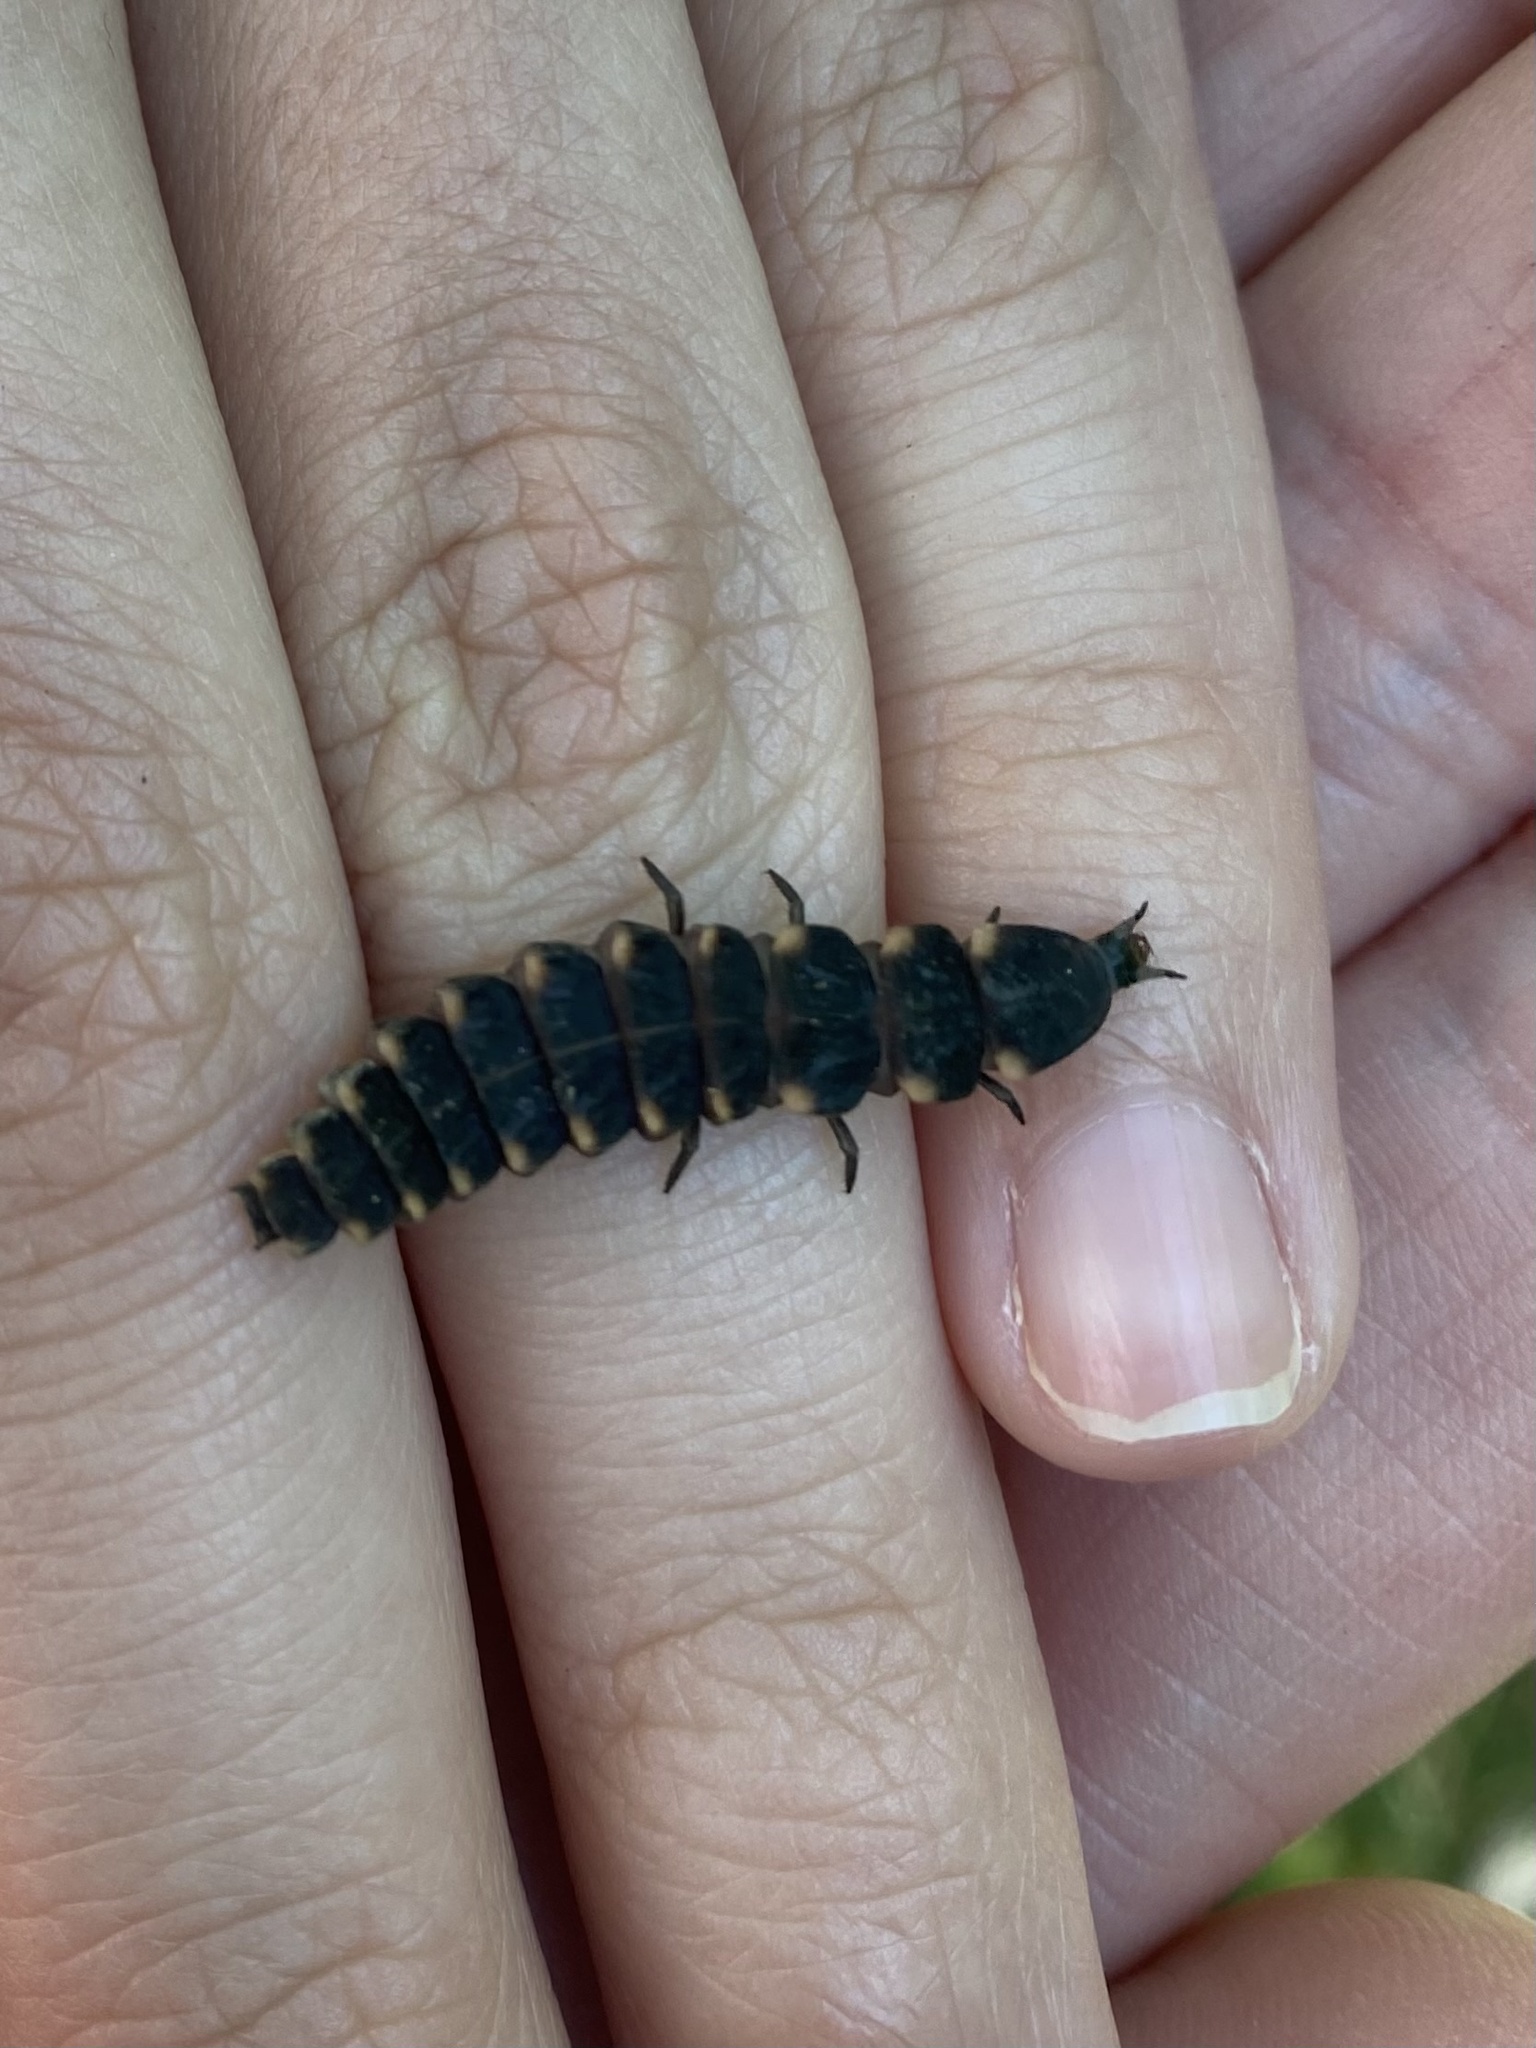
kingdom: Animalia
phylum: Arthropoda
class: Insecta
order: Coleoptera
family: Lampyridae
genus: Lampyris
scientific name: Lampyris noctiluca
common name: Glow-worm
